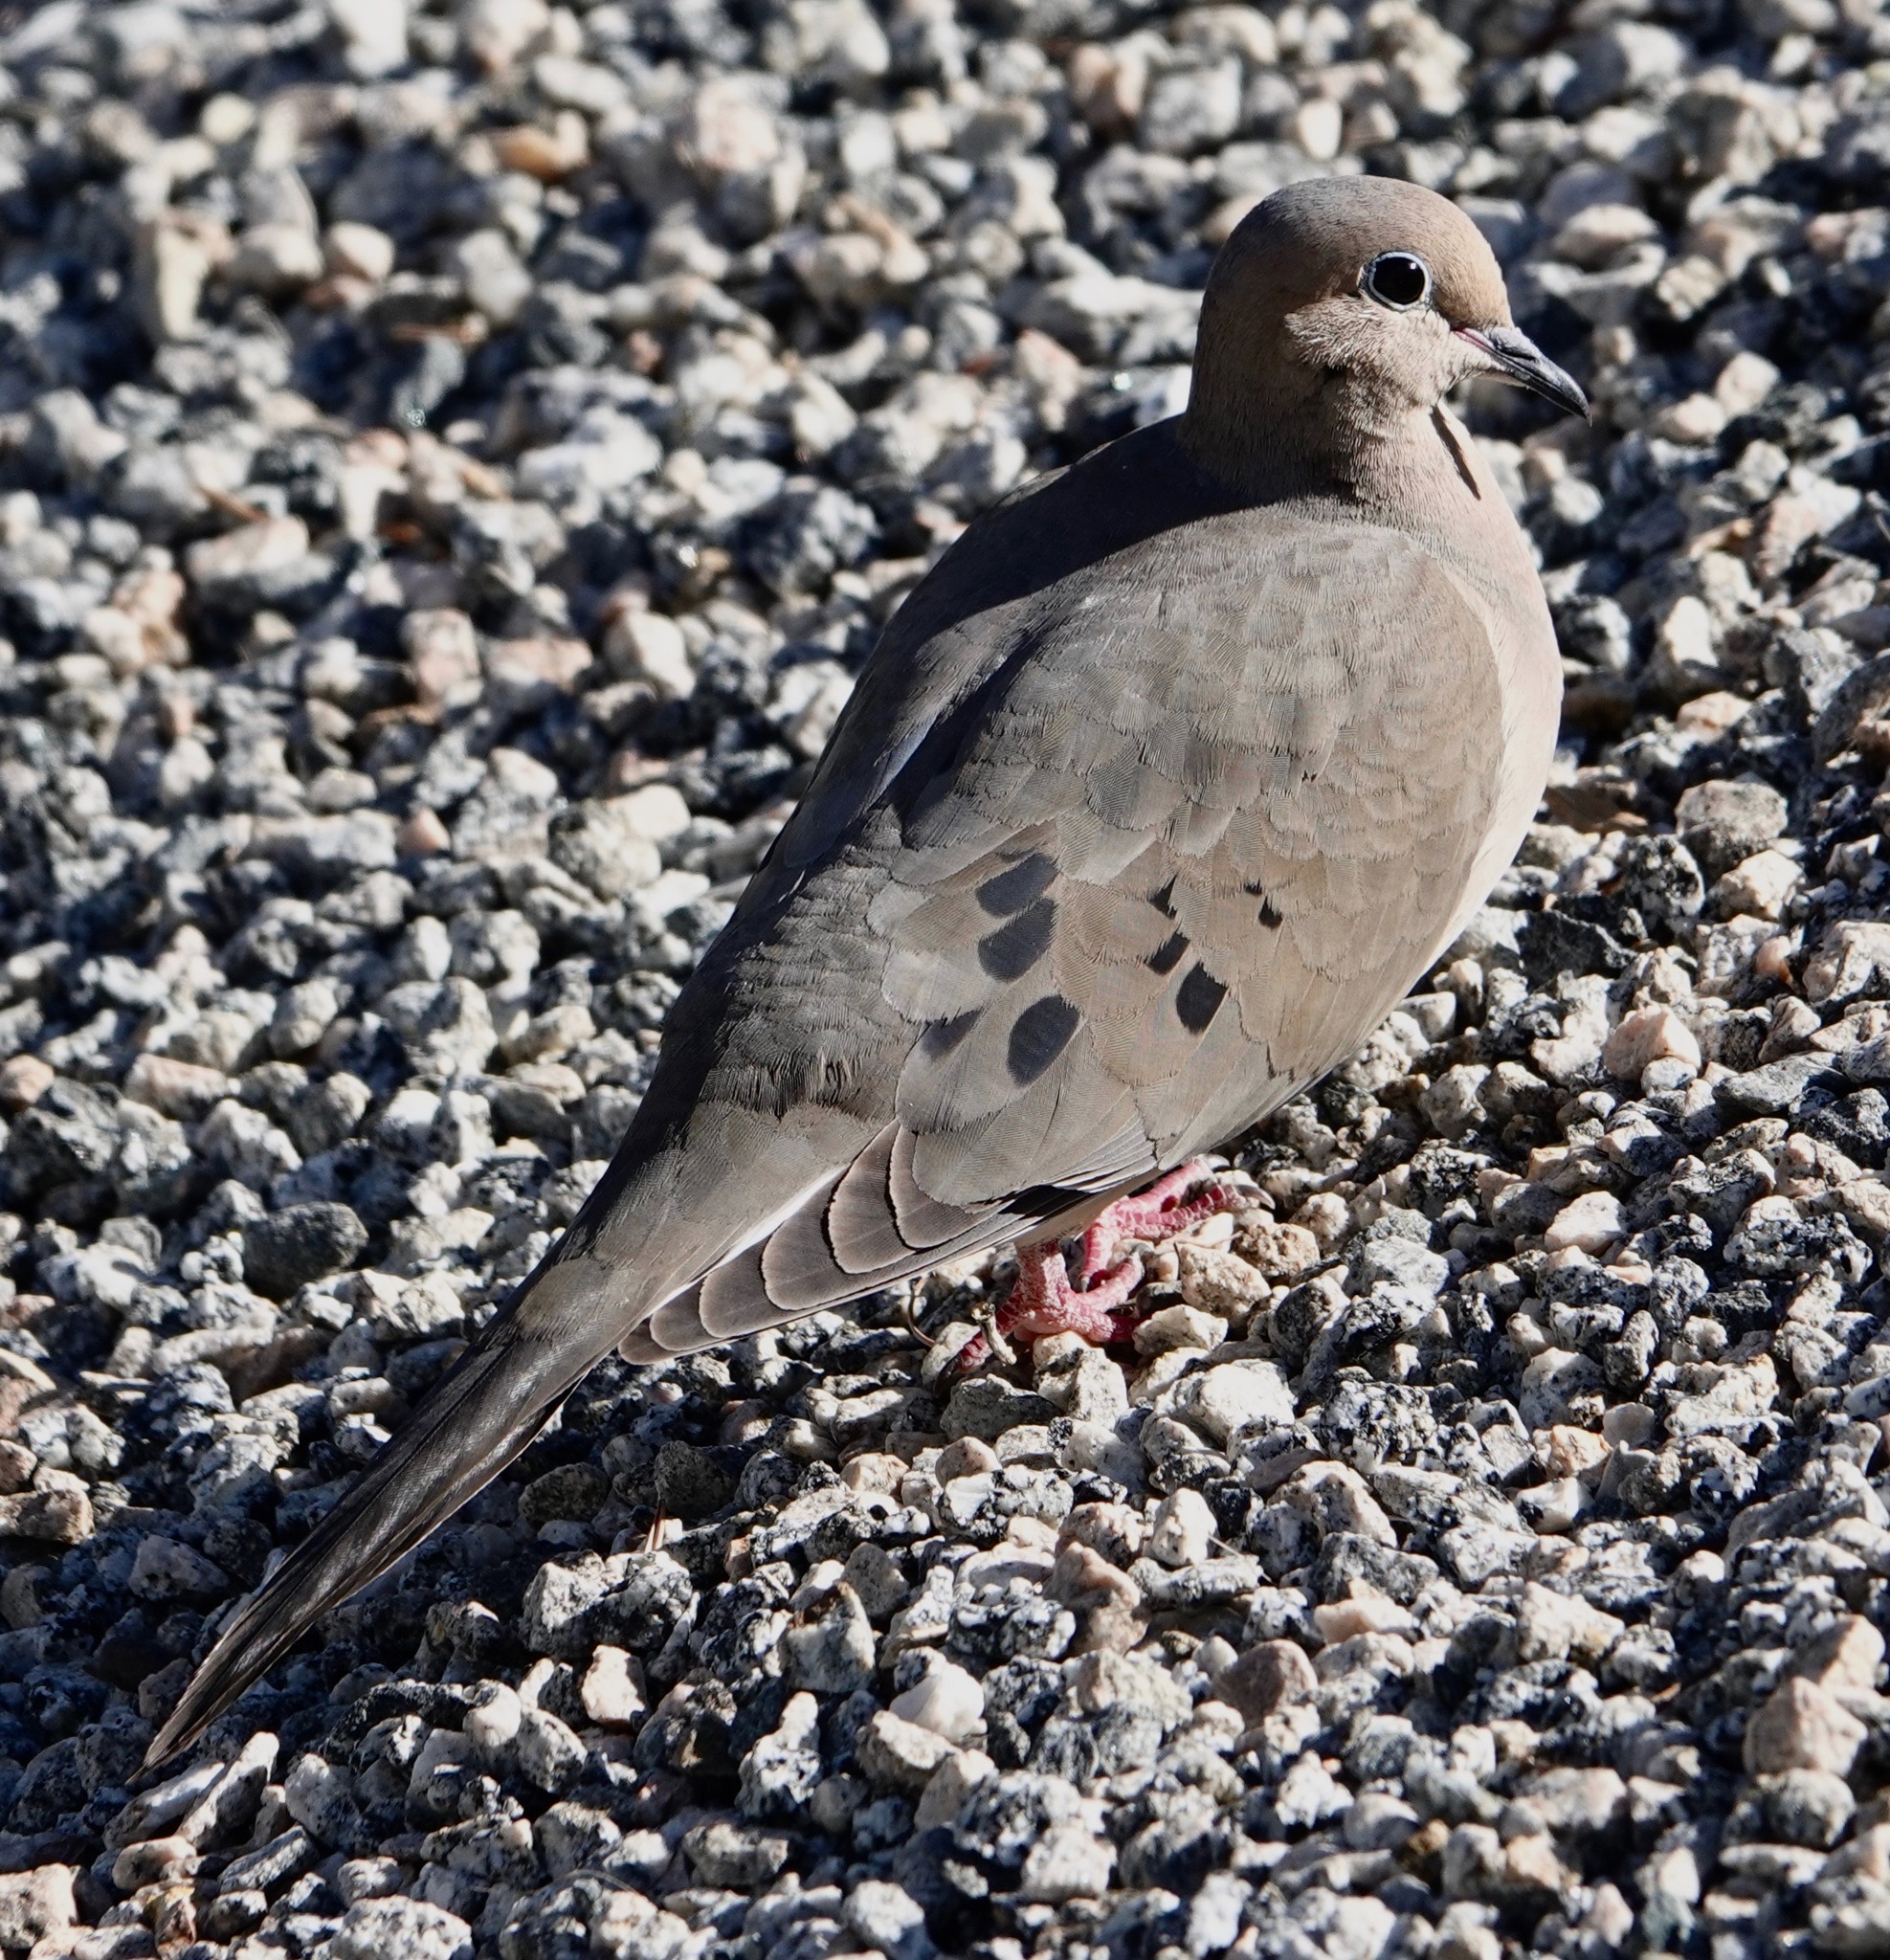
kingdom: Animalia
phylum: Chordata
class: Aves
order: Columbiformes
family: Columbidae
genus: Zenaida
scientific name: Zenaida macroura
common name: Mourning dove
